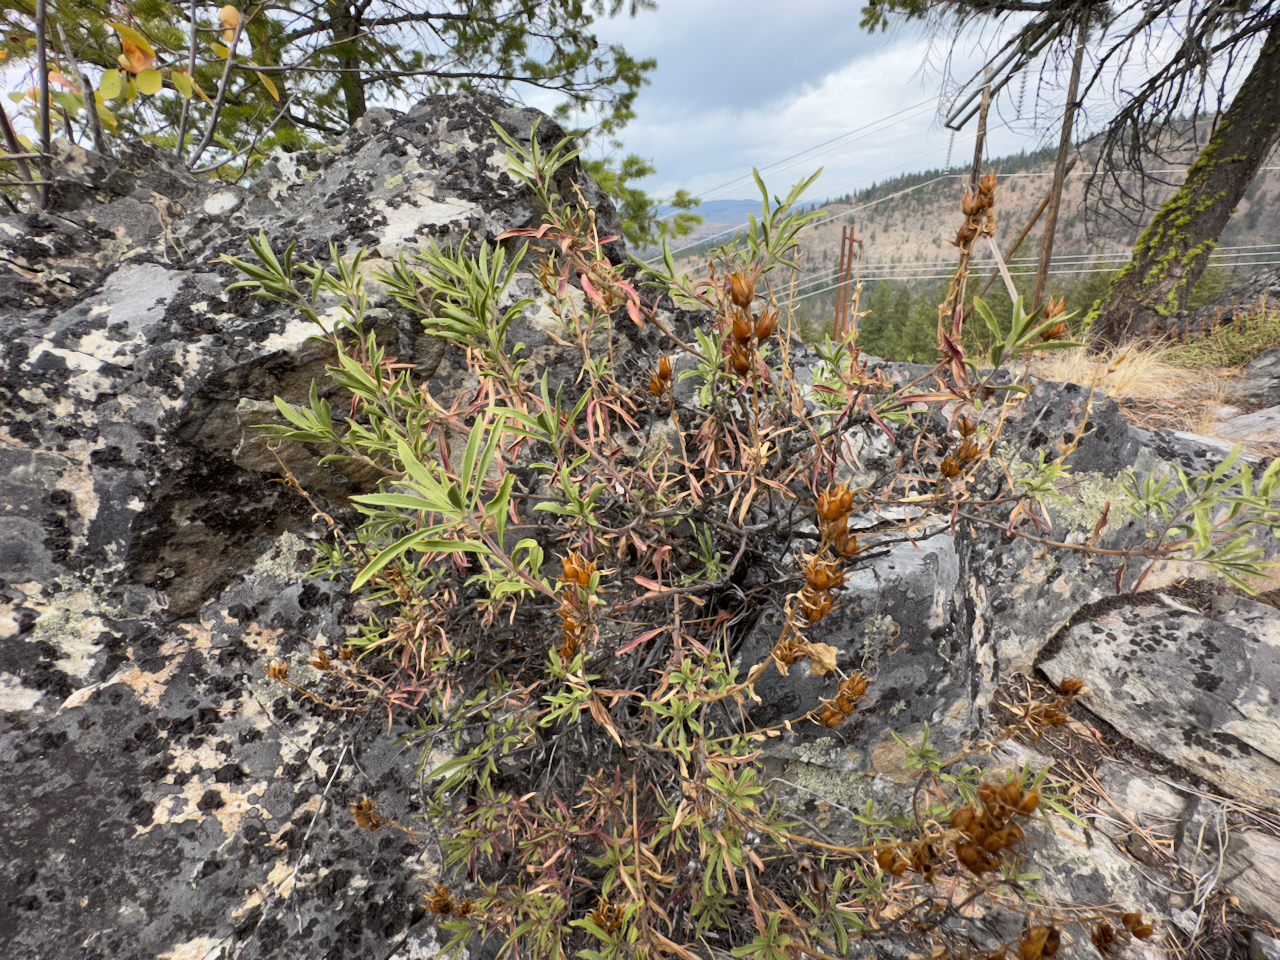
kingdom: Plantae
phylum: Tracheophyta
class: Magnoliopsida
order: Lamiales
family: Plantaginaceae
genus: Penstemon
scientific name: Penstemon fruticosus
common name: Bush penstemon
